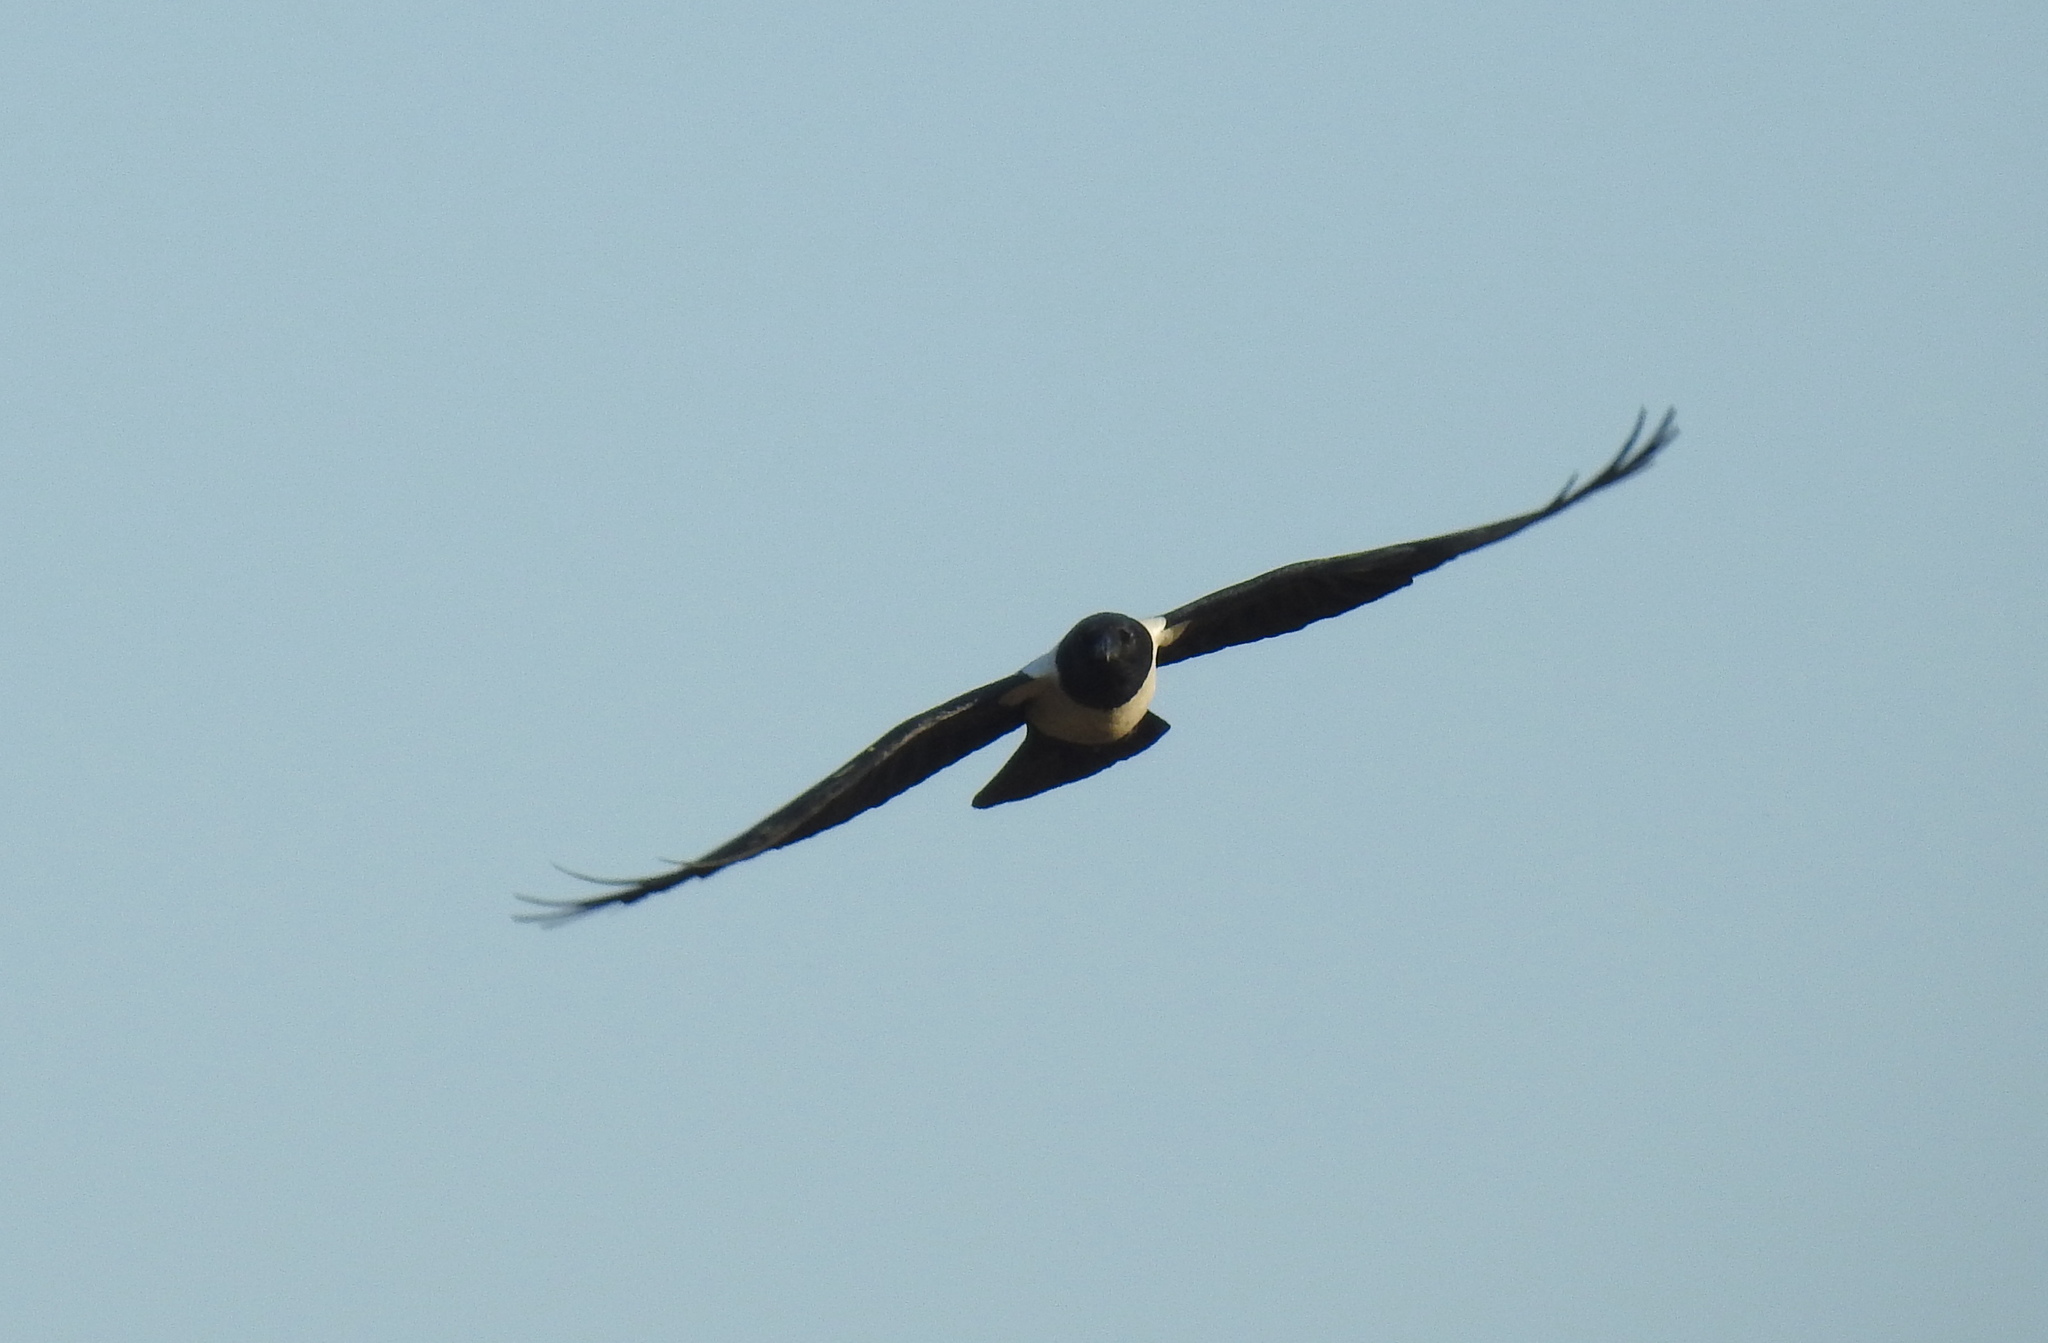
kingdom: Animalia
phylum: Chordata
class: Aves
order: Passeriformes
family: Corvidae
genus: Corvus
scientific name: Corvus albus
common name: Pied crow
